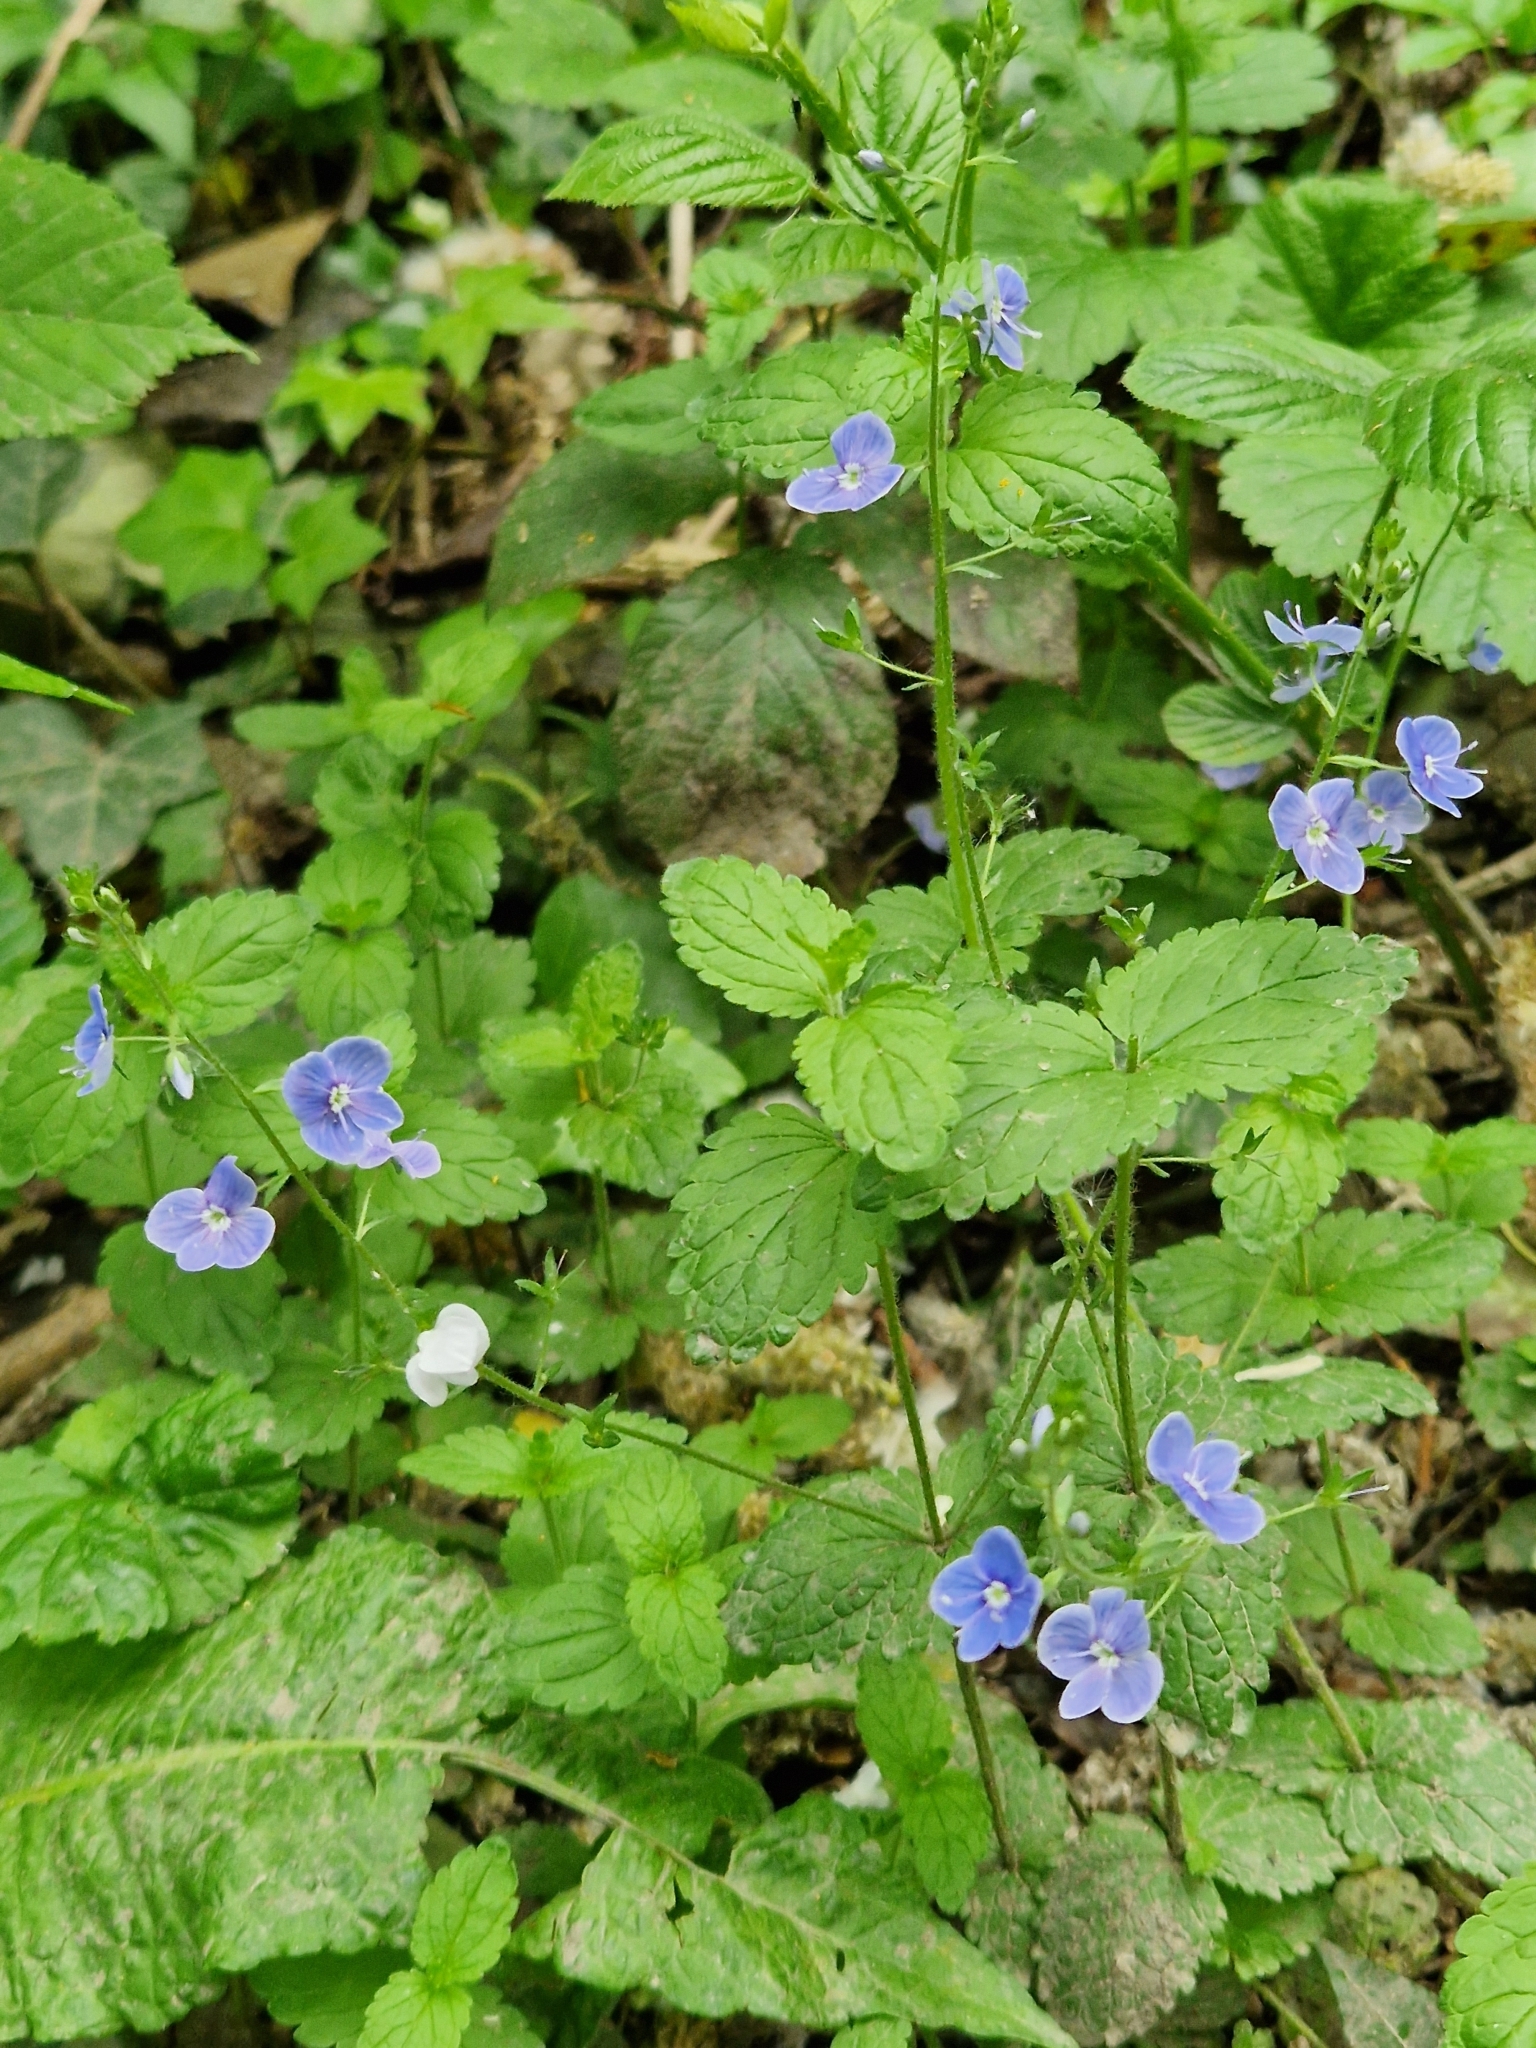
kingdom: Plantae
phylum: Tracheophyta
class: Magnoliopsida
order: Lamiales
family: Plantaginaceae
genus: Veronica
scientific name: Veronica chamaedrys
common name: Germander speedwell
